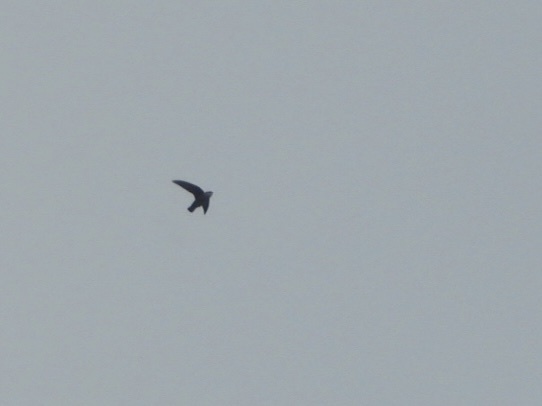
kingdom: Animalia
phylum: Chordata
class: Aves
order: Apodiformes
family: Apodidae
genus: Chaetura
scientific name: Chaetura vauxi
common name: Vaux's swift
